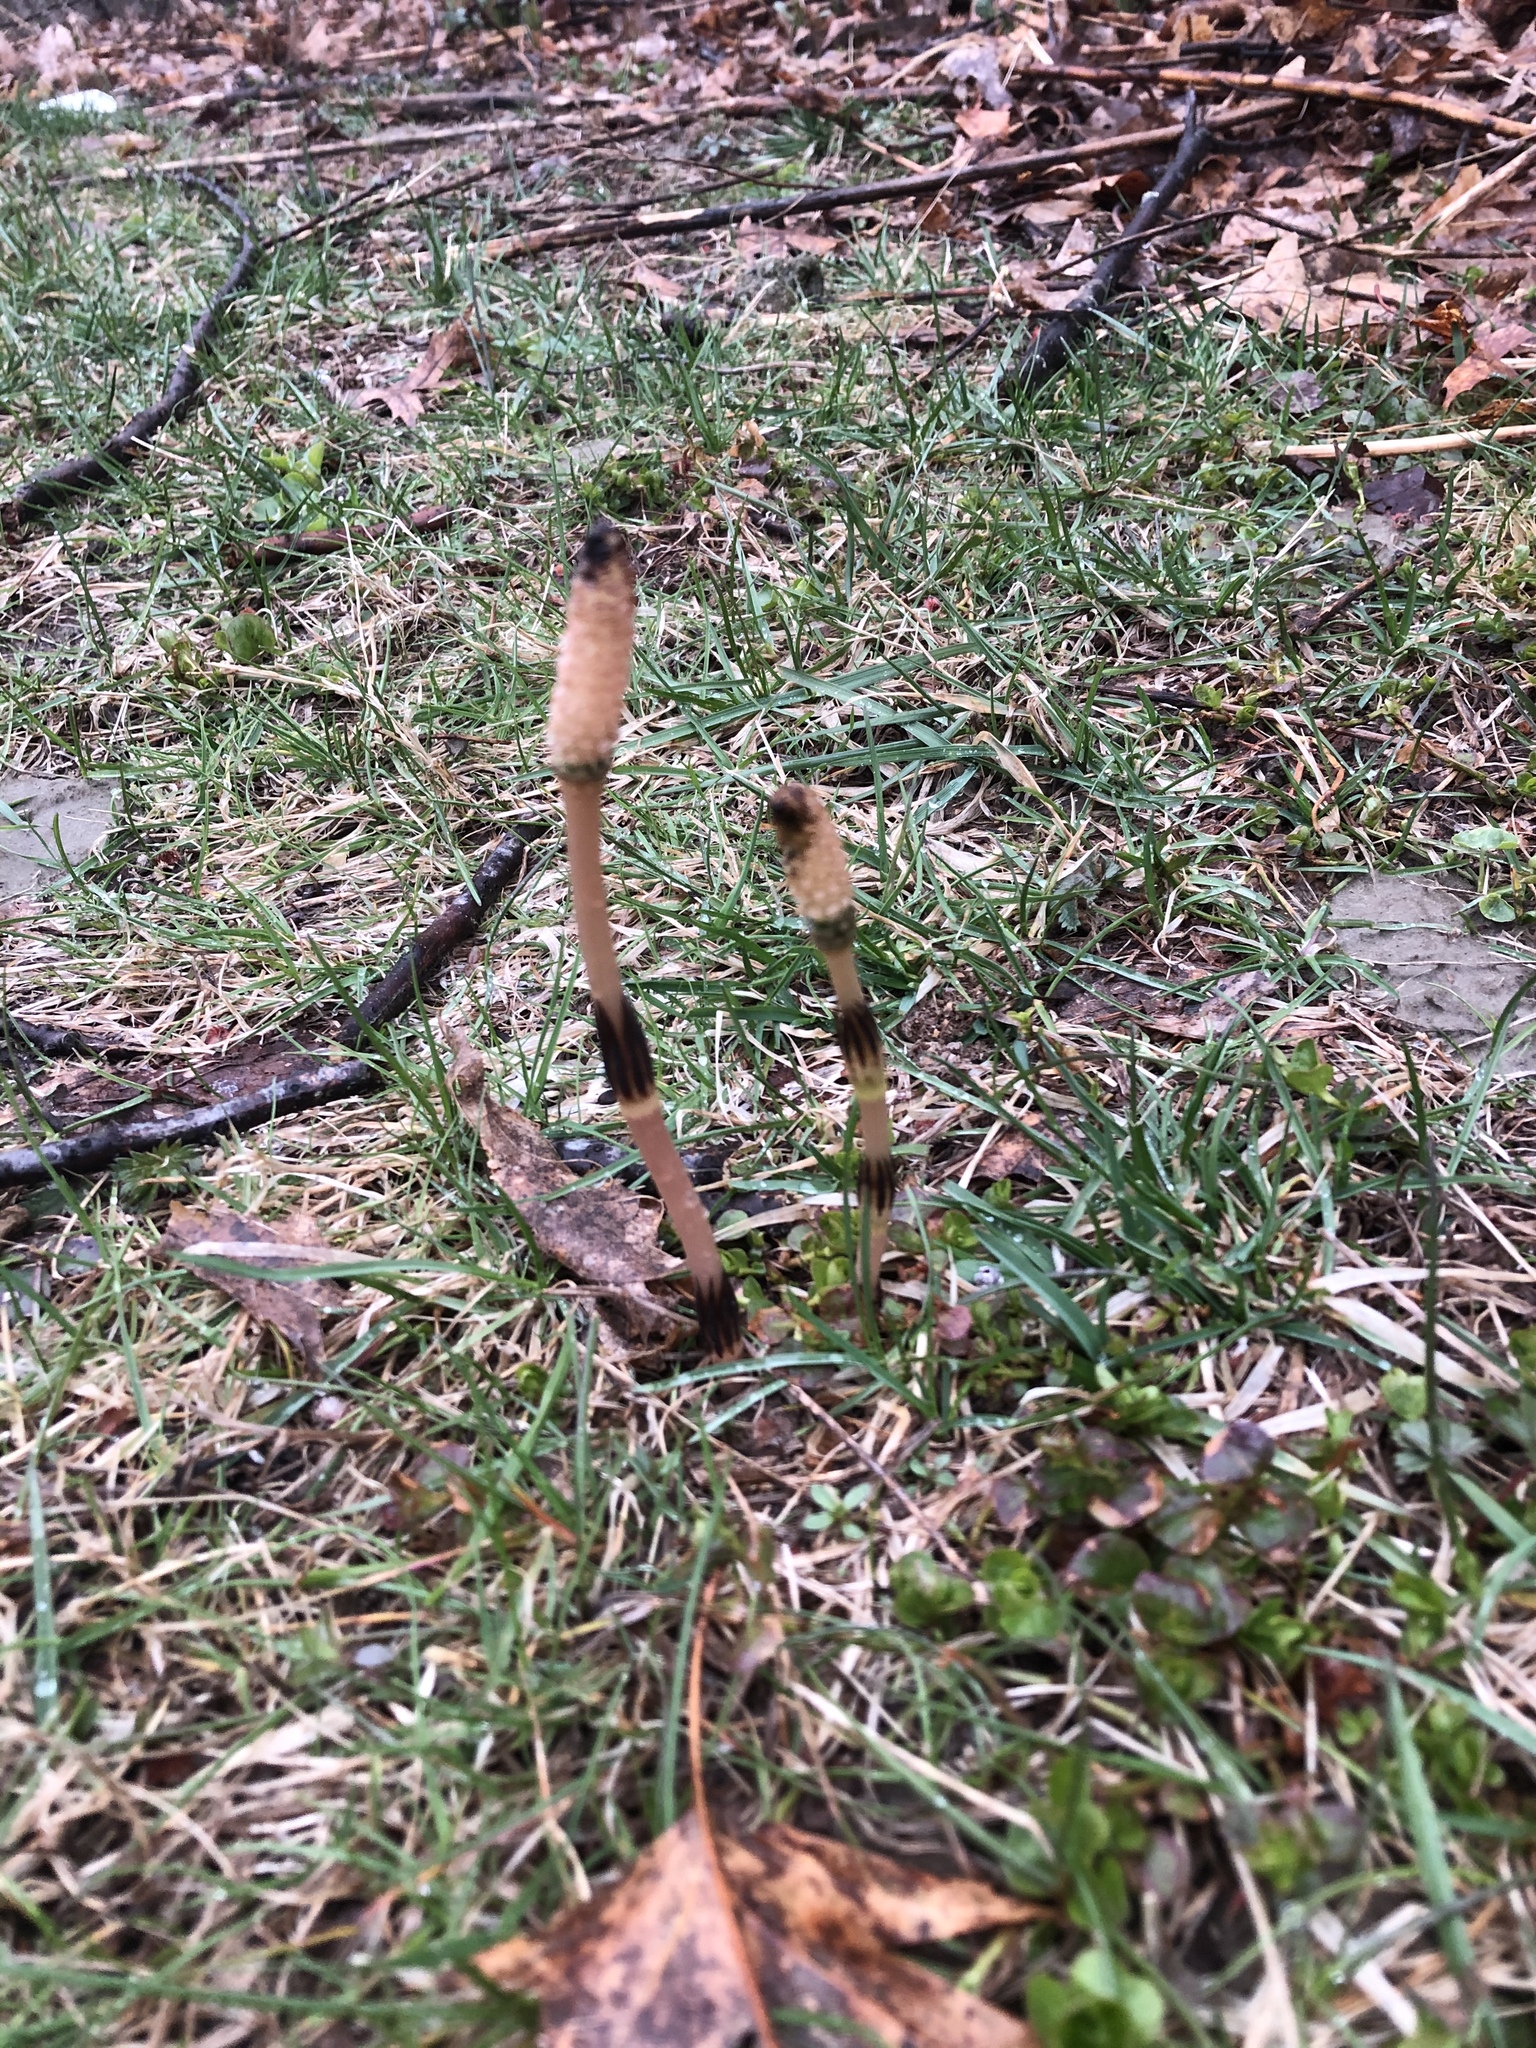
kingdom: Plantae
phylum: Tracheophyta
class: Polypodiopsida
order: Equisetales
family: Equisetaceae
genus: Equisetum
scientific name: Equisetum arvense
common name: Field horsetail
